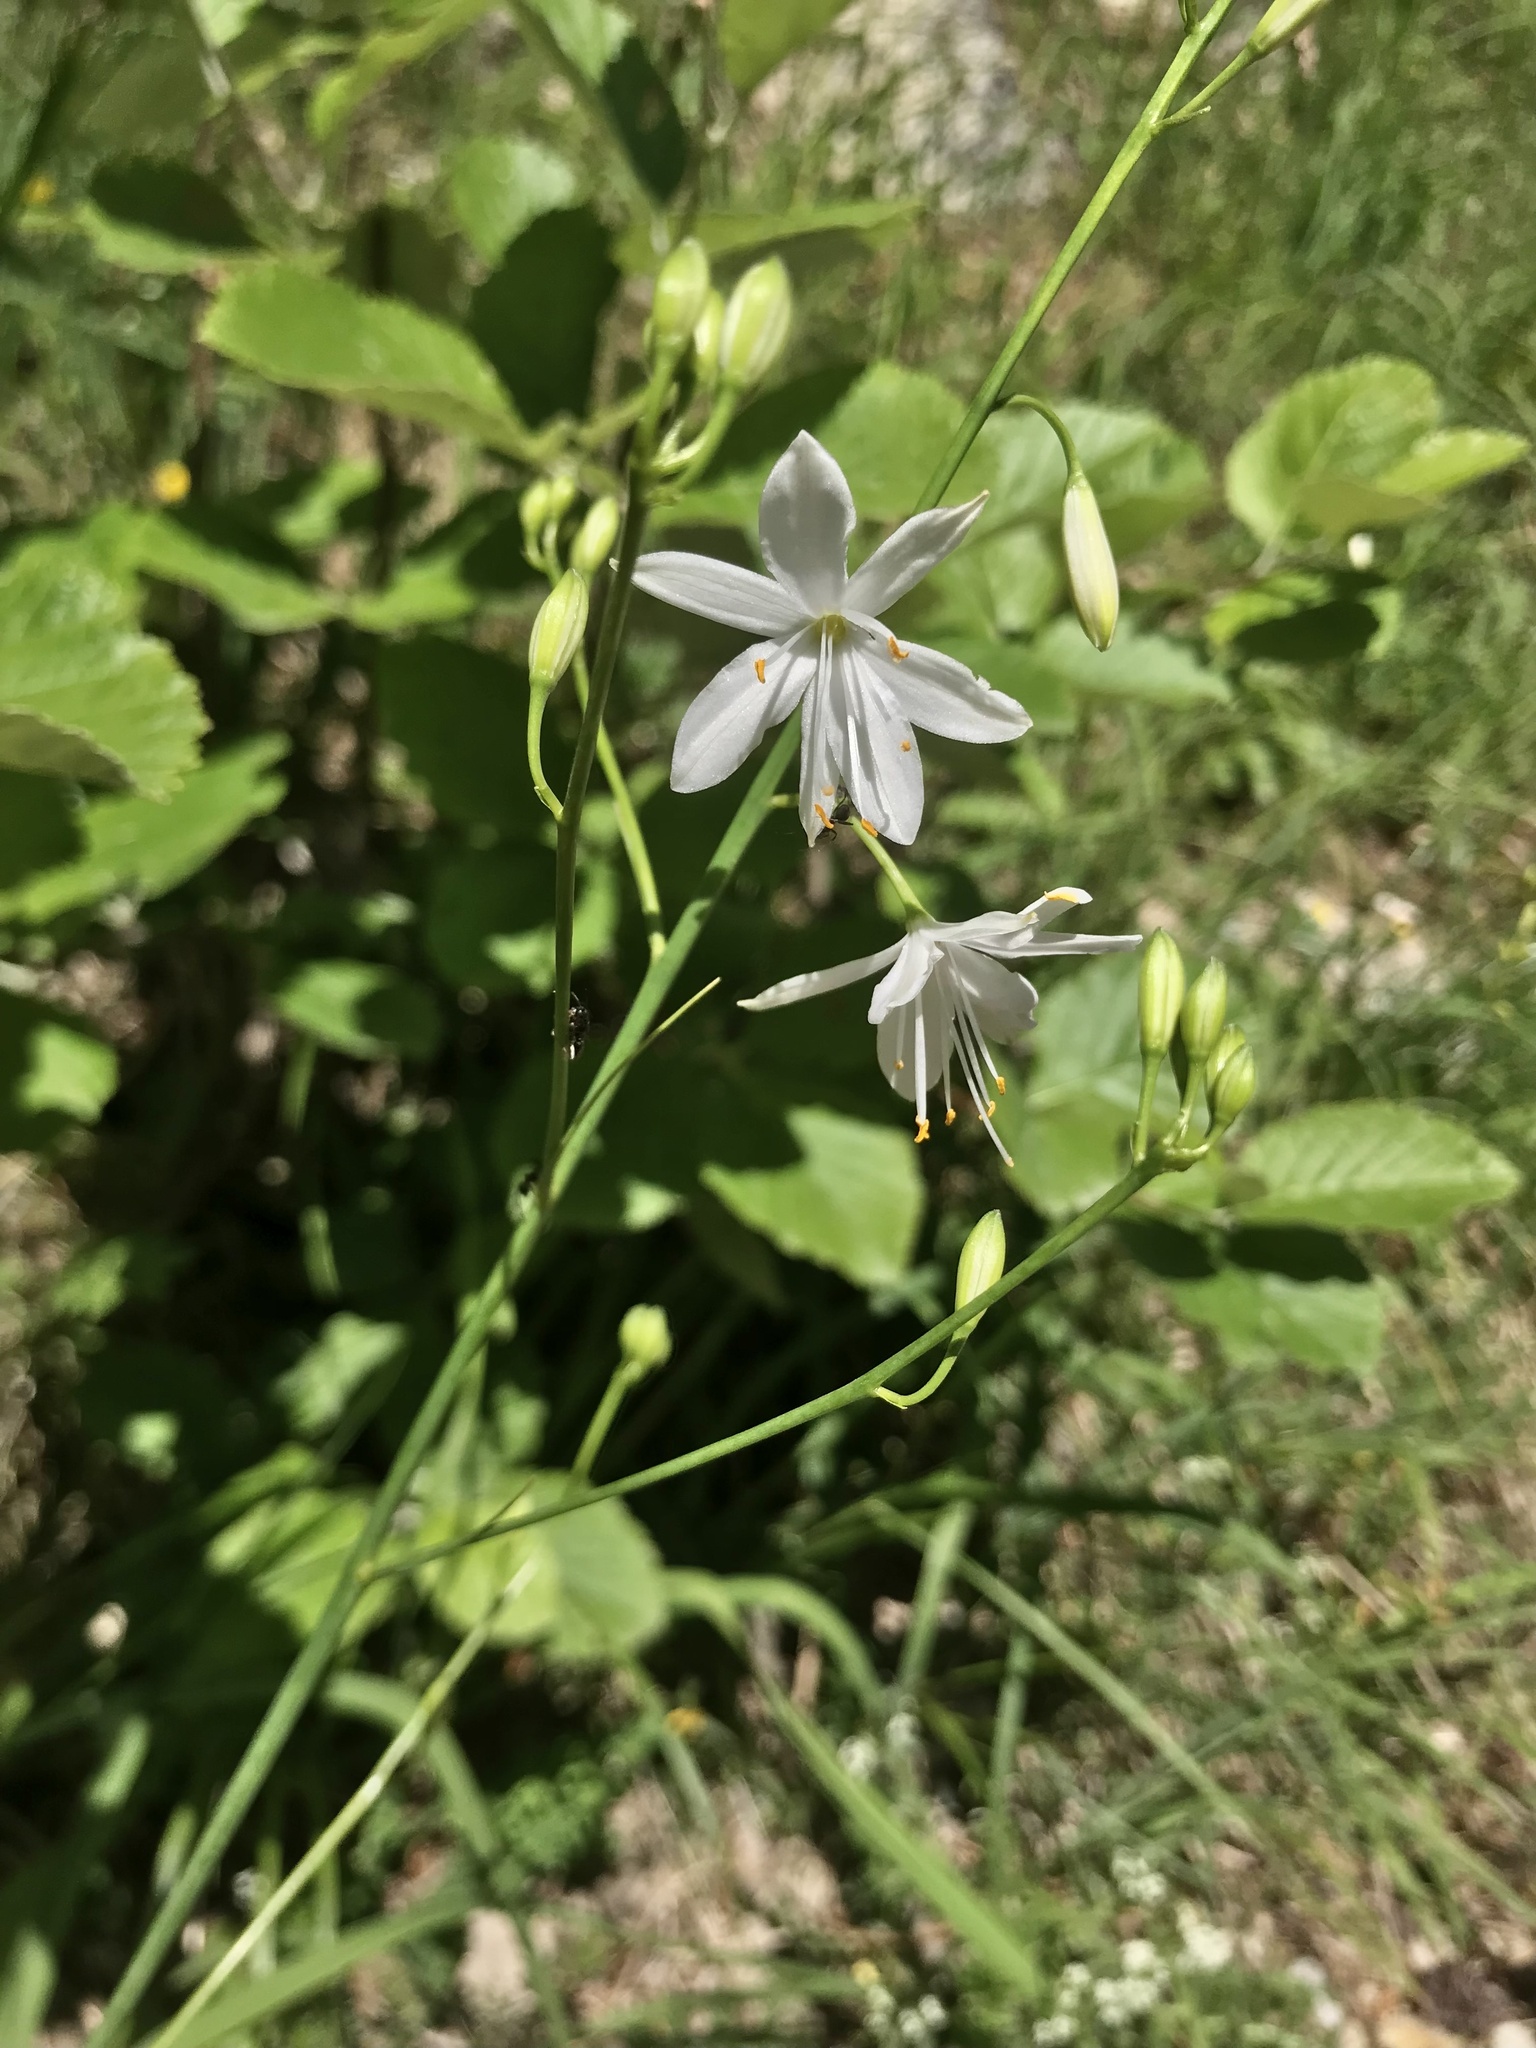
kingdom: Plantae
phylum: Tracheophyta
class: Liliopsida
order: Asparagales
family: Asparagaceae
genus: Anthericum
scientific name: Anthericum ramosum
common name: Branched st. bernard's-lily
